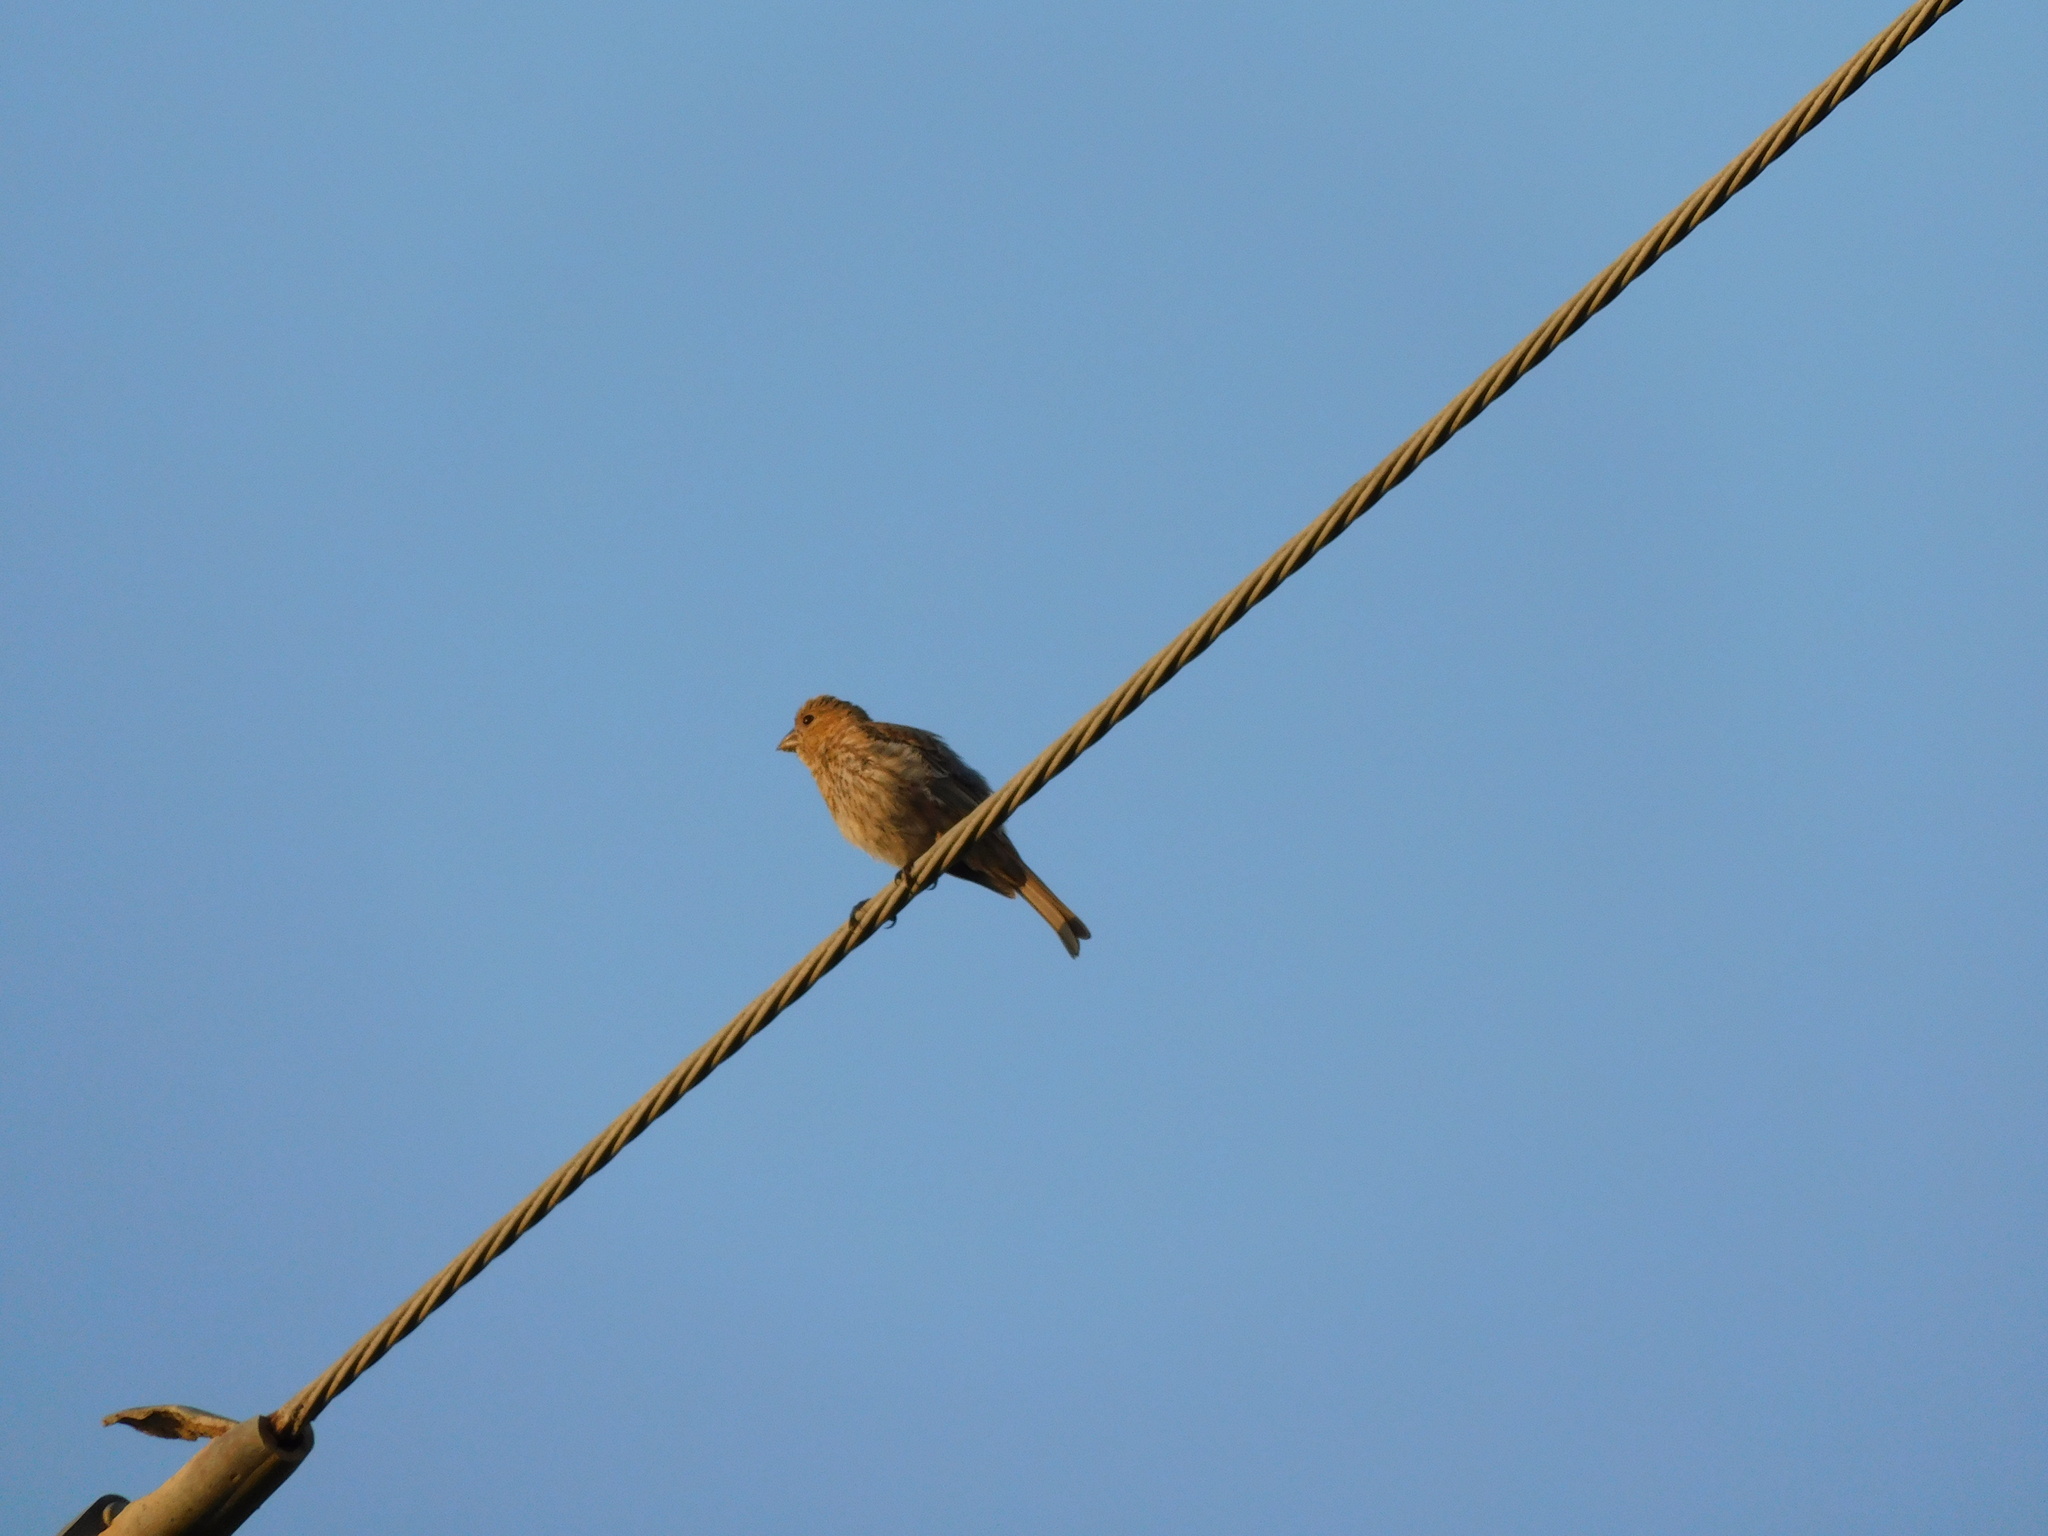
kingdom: Animalia
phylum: Chordata
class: Aves
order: Passeriformes
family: Fringillidae
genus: Haemorhous
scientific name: Haemorhous mexicanus
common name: House finch
